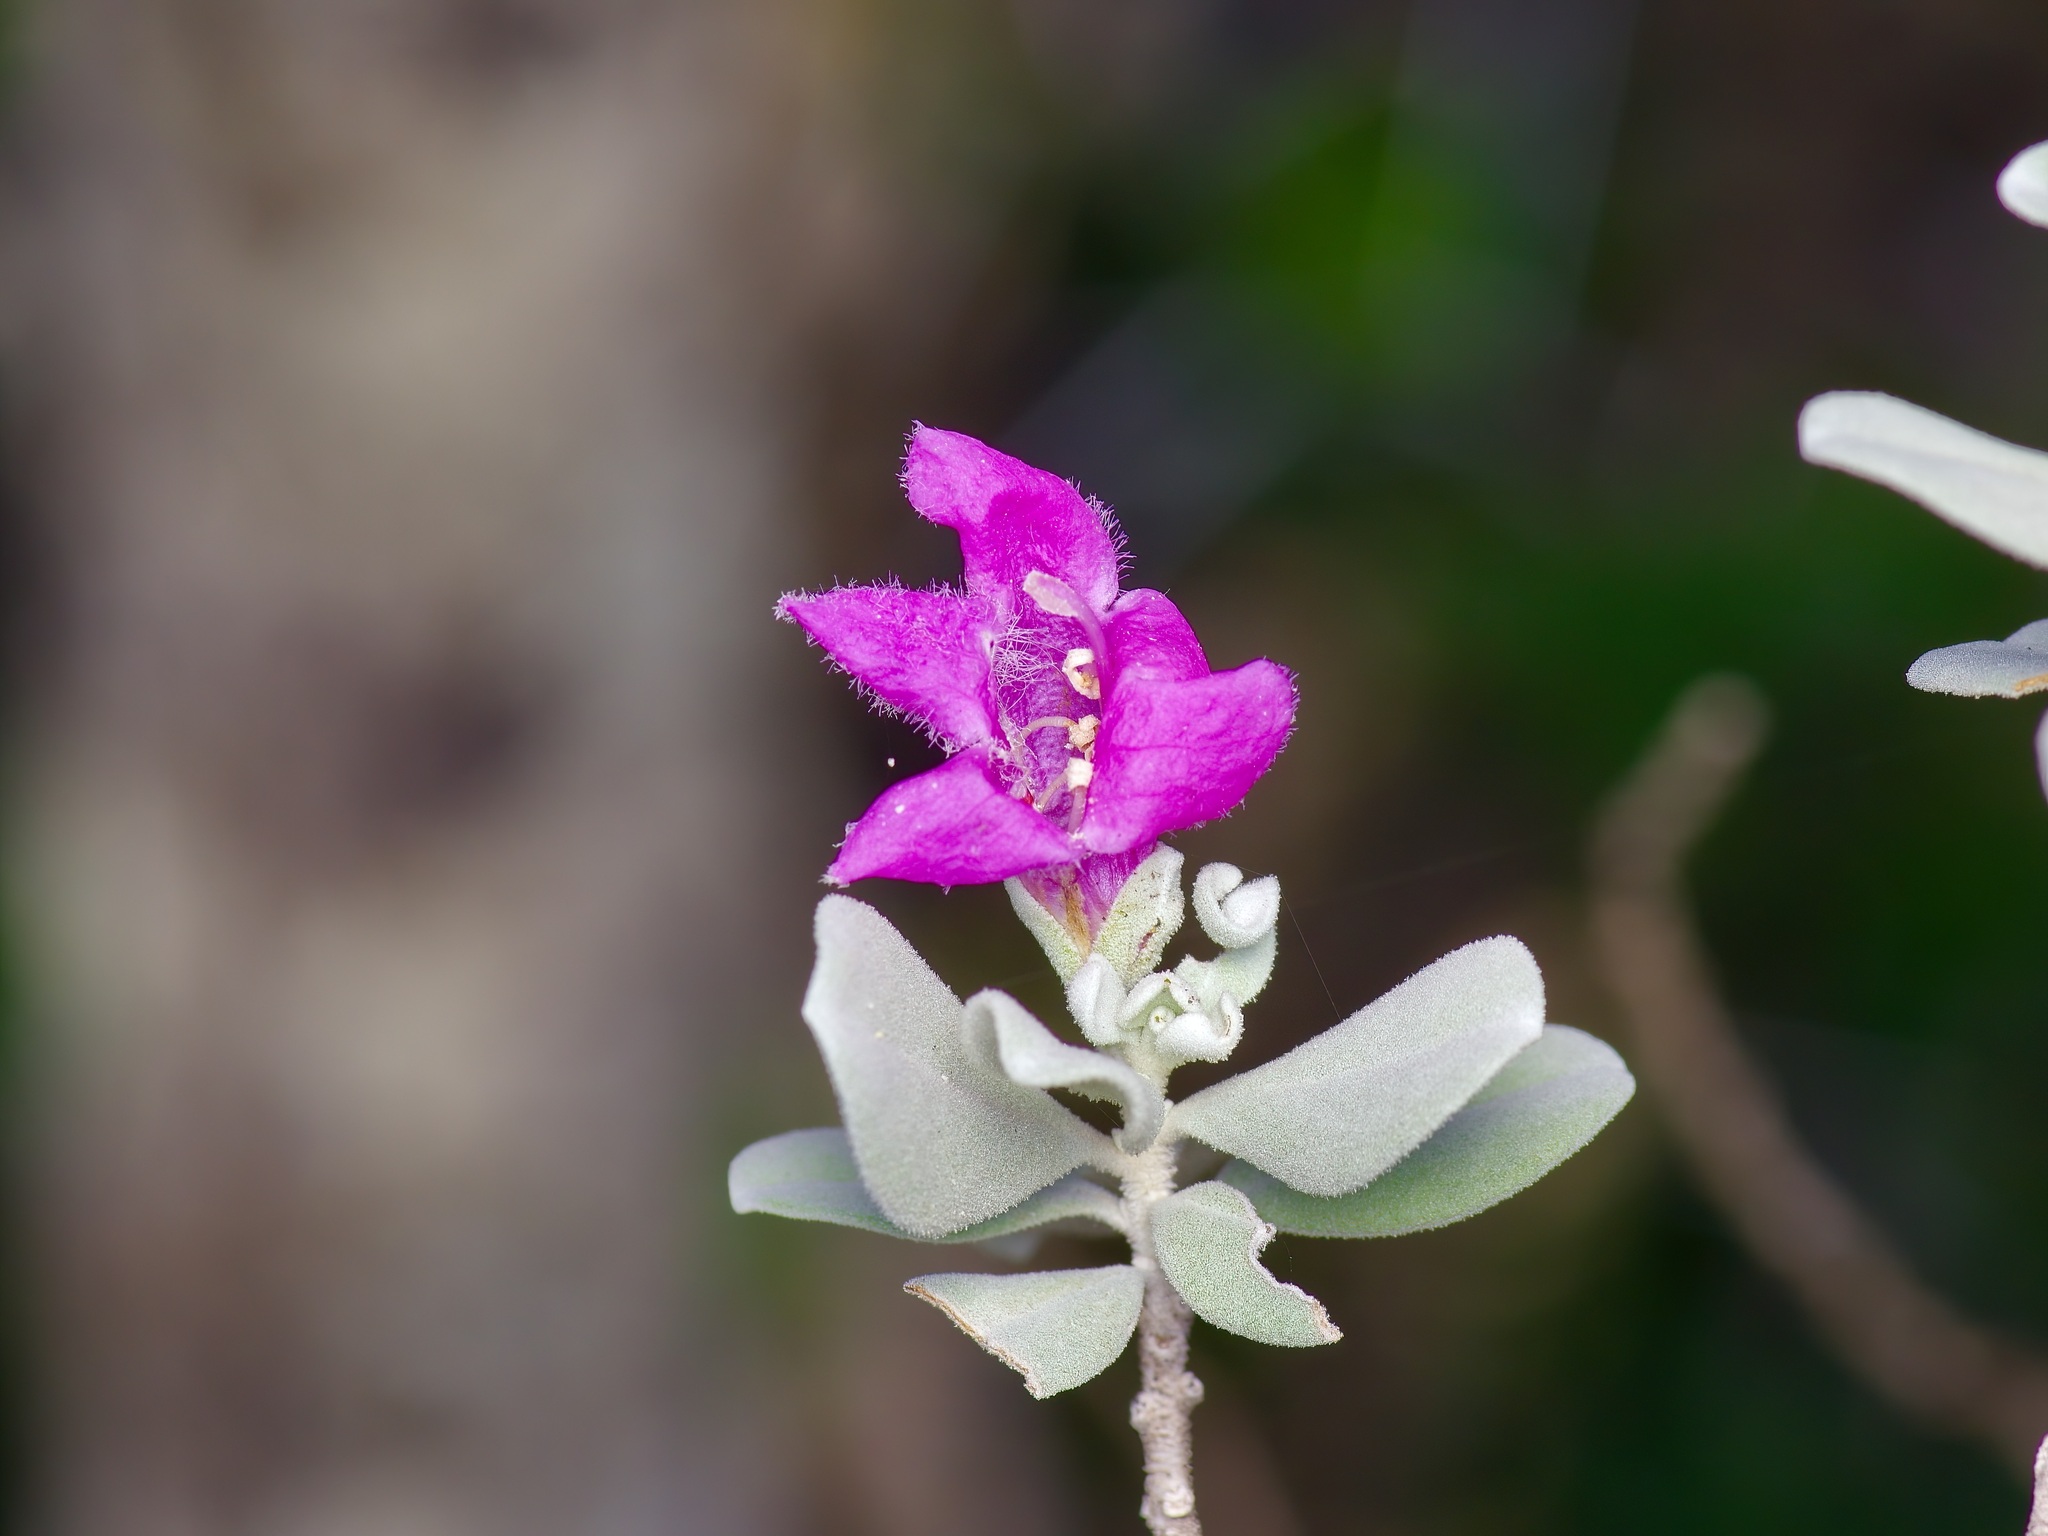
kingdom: Plantae
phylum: Tracheophyta
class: Magnoliopsida
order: Lamiales
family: Scrophulariaceae
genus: Leucophyllum
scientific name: Leucophyllum frutescens
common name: Texas silverleaf
